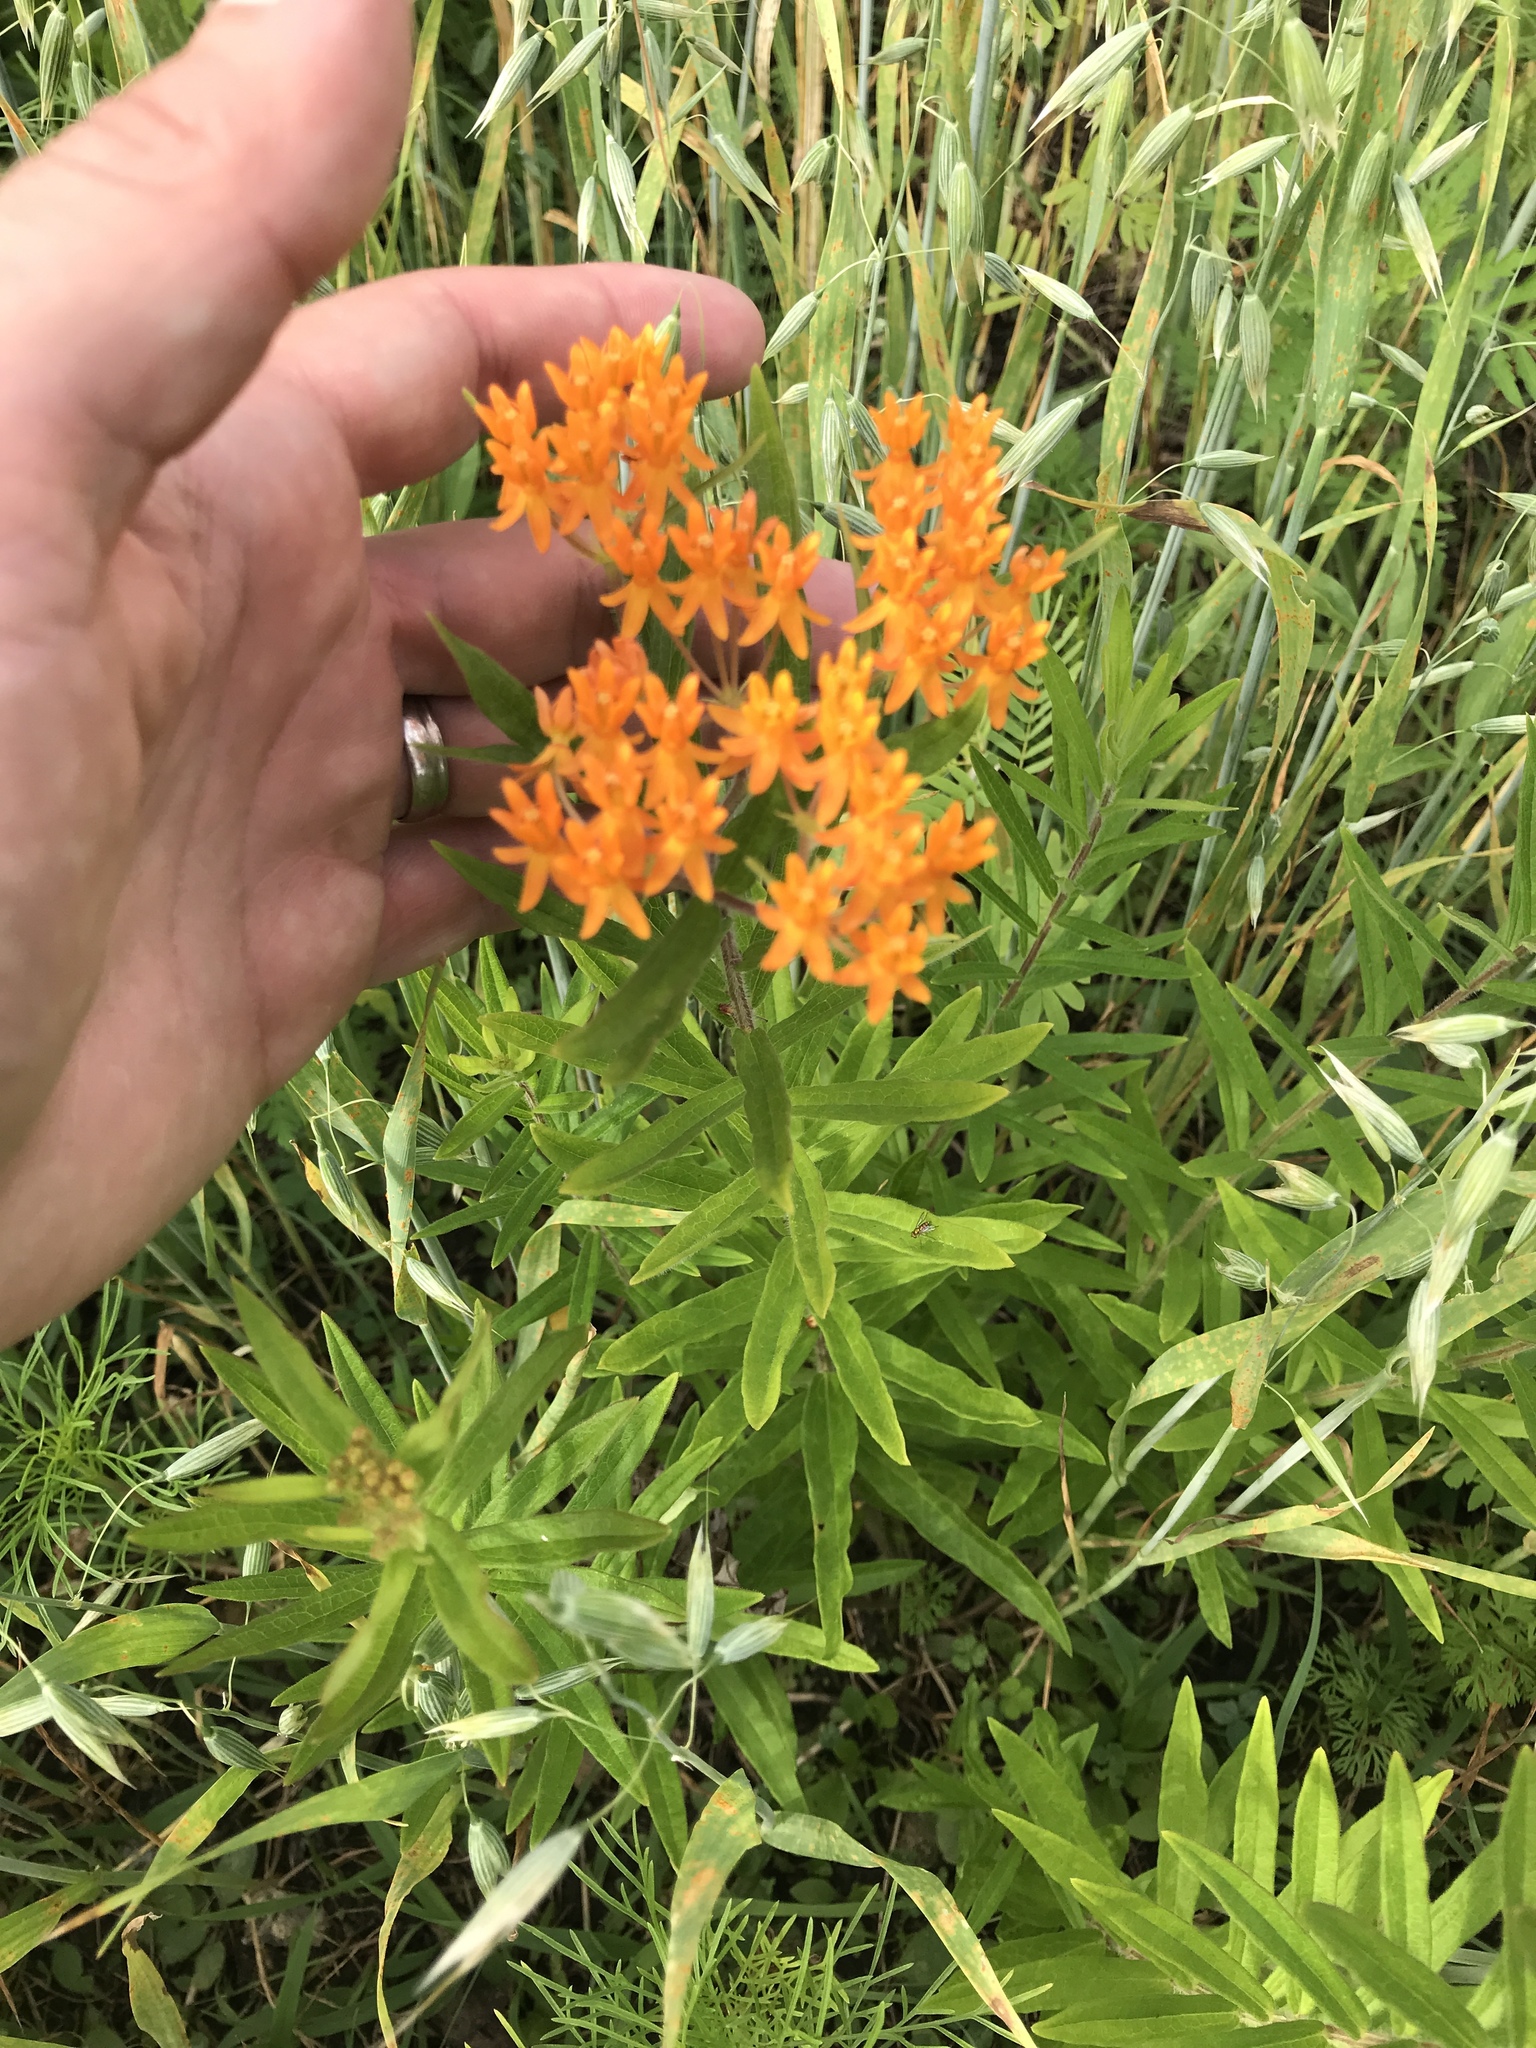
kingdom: Plantae
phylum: Tracheophyta
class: Magnoliopsida
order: Gentianales
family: Apocynaceae
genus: Asclepias
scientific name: Asclepias tuberosa
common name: Butterfly milkweed
